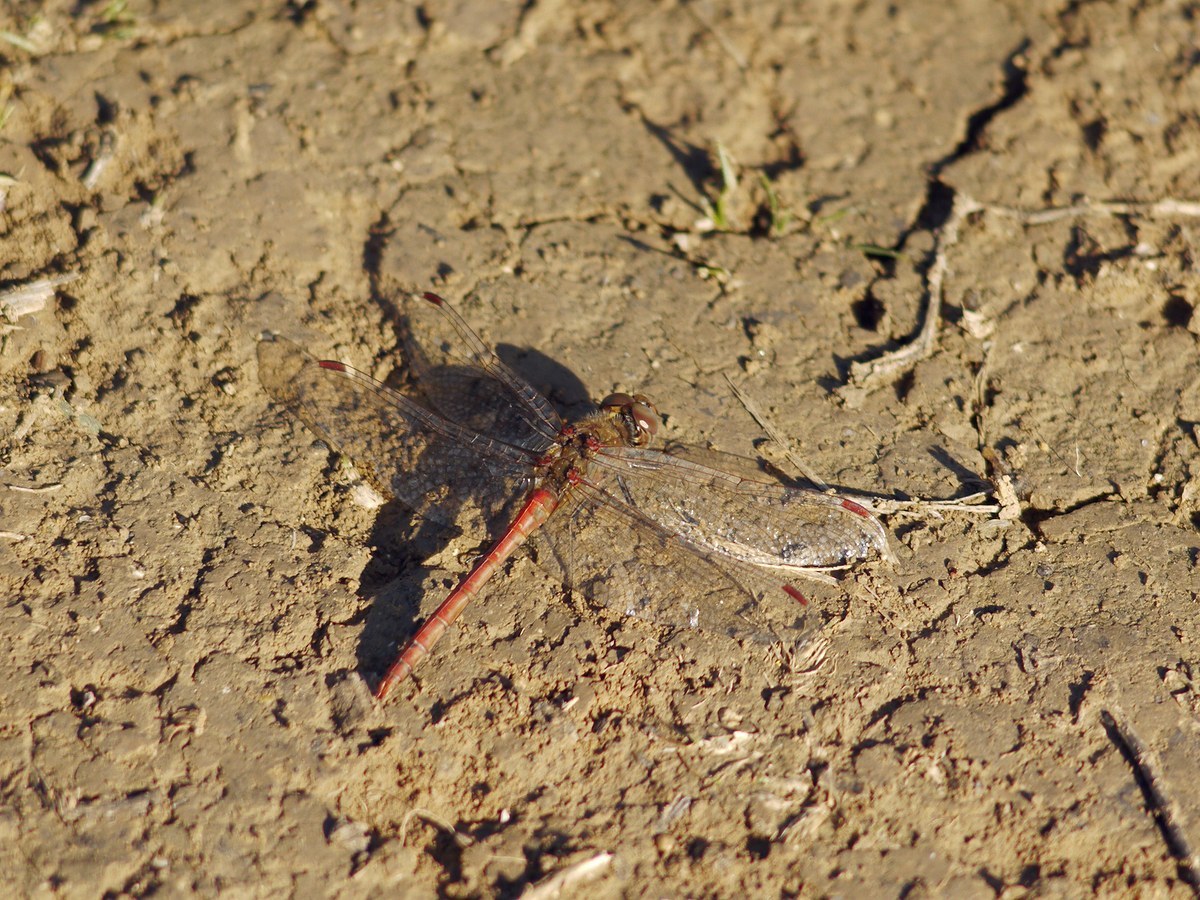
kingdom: Animalia
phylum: Arthropoda
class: Insecta
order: Odonata
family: Libellulidae
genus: Sympetrum
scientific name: Sympetrum
